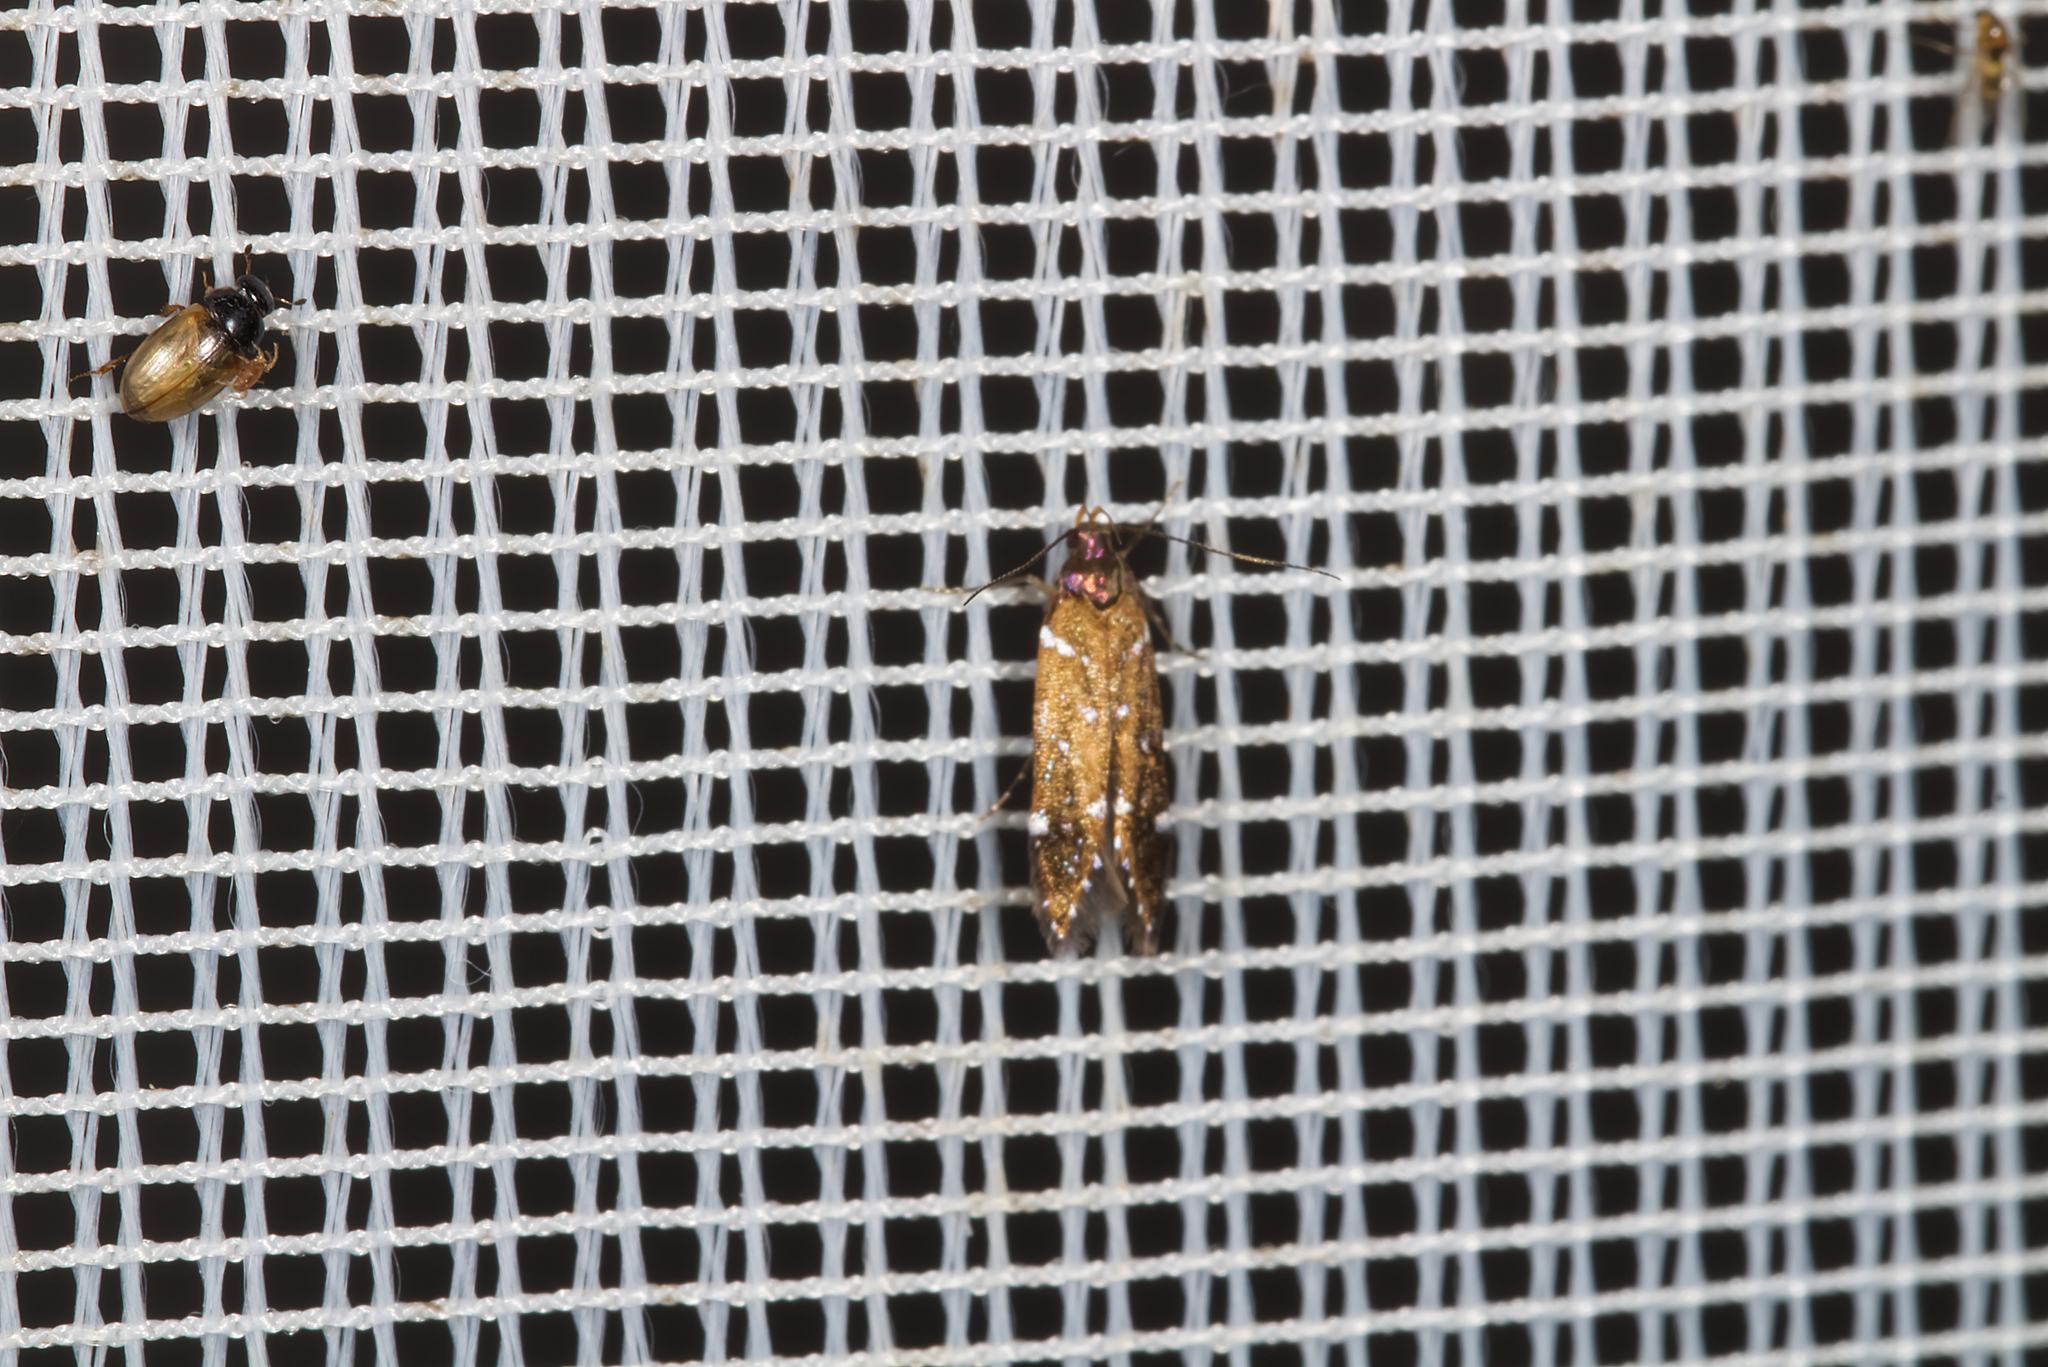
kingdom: Animalia
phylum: Arthropoda
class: Insecta
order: Lepidoptera
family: Gelechiidae
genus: Argolamprotes
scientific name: Argolamprotes micella
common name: Bright neb
